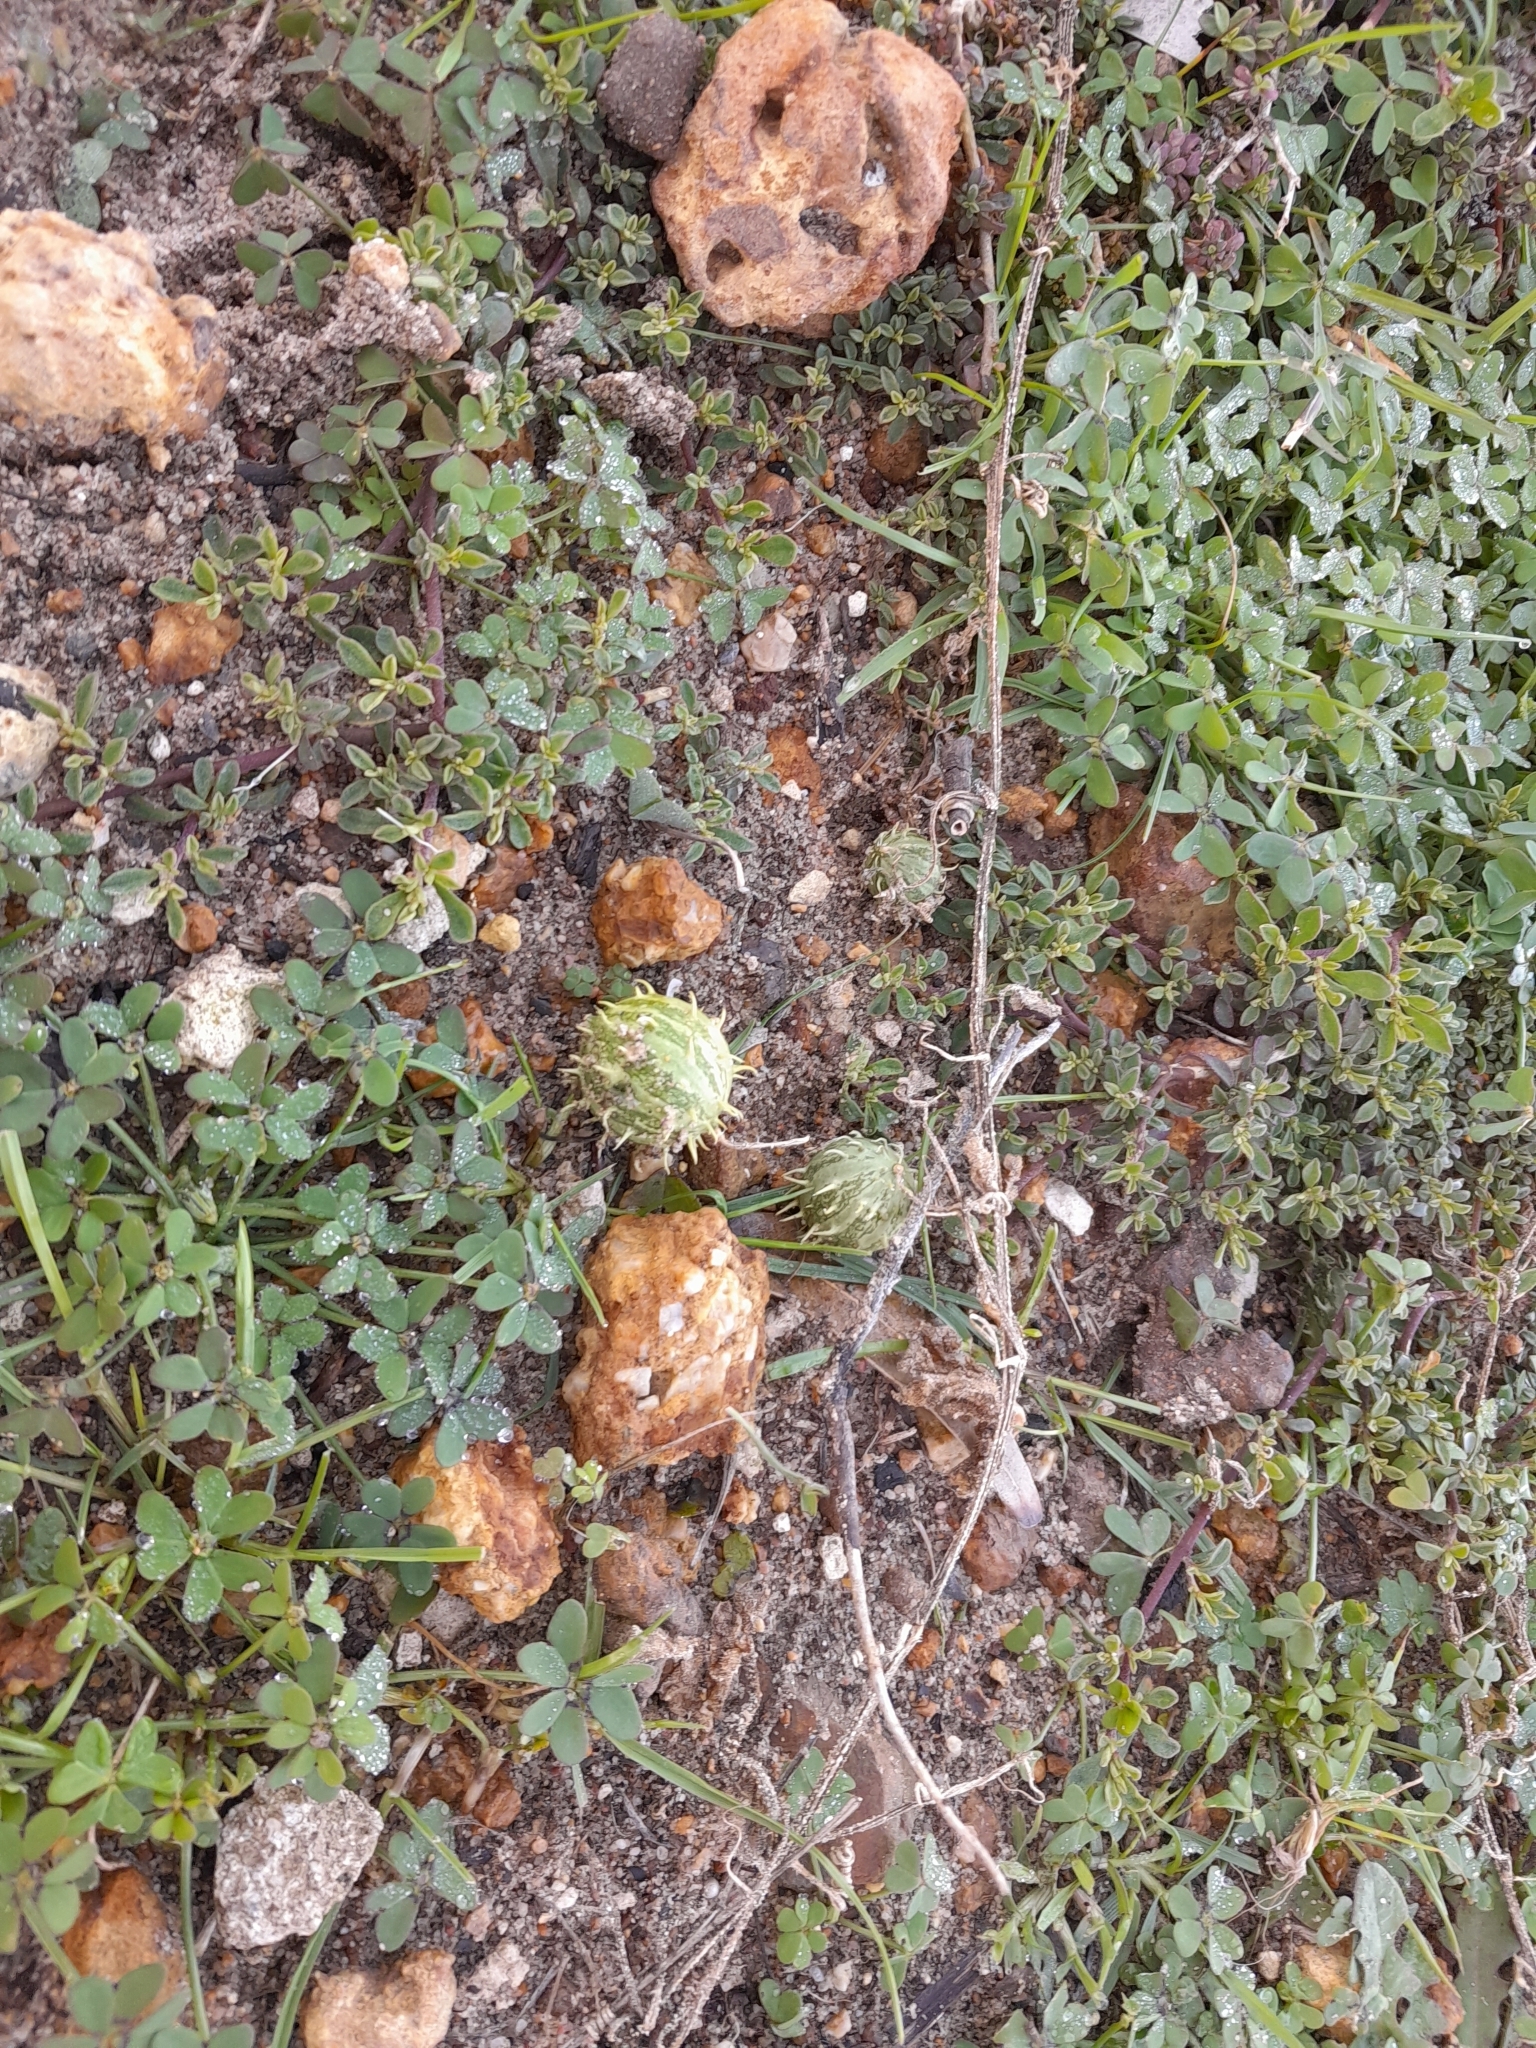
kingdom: Plantae
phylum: Tracheophyta
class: Magnoliopsida
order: Cucurbitales
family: Cucurbitaceae
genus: Cucumis
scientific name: Cucumis myriocarpus
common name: Gooseberry cucumber
